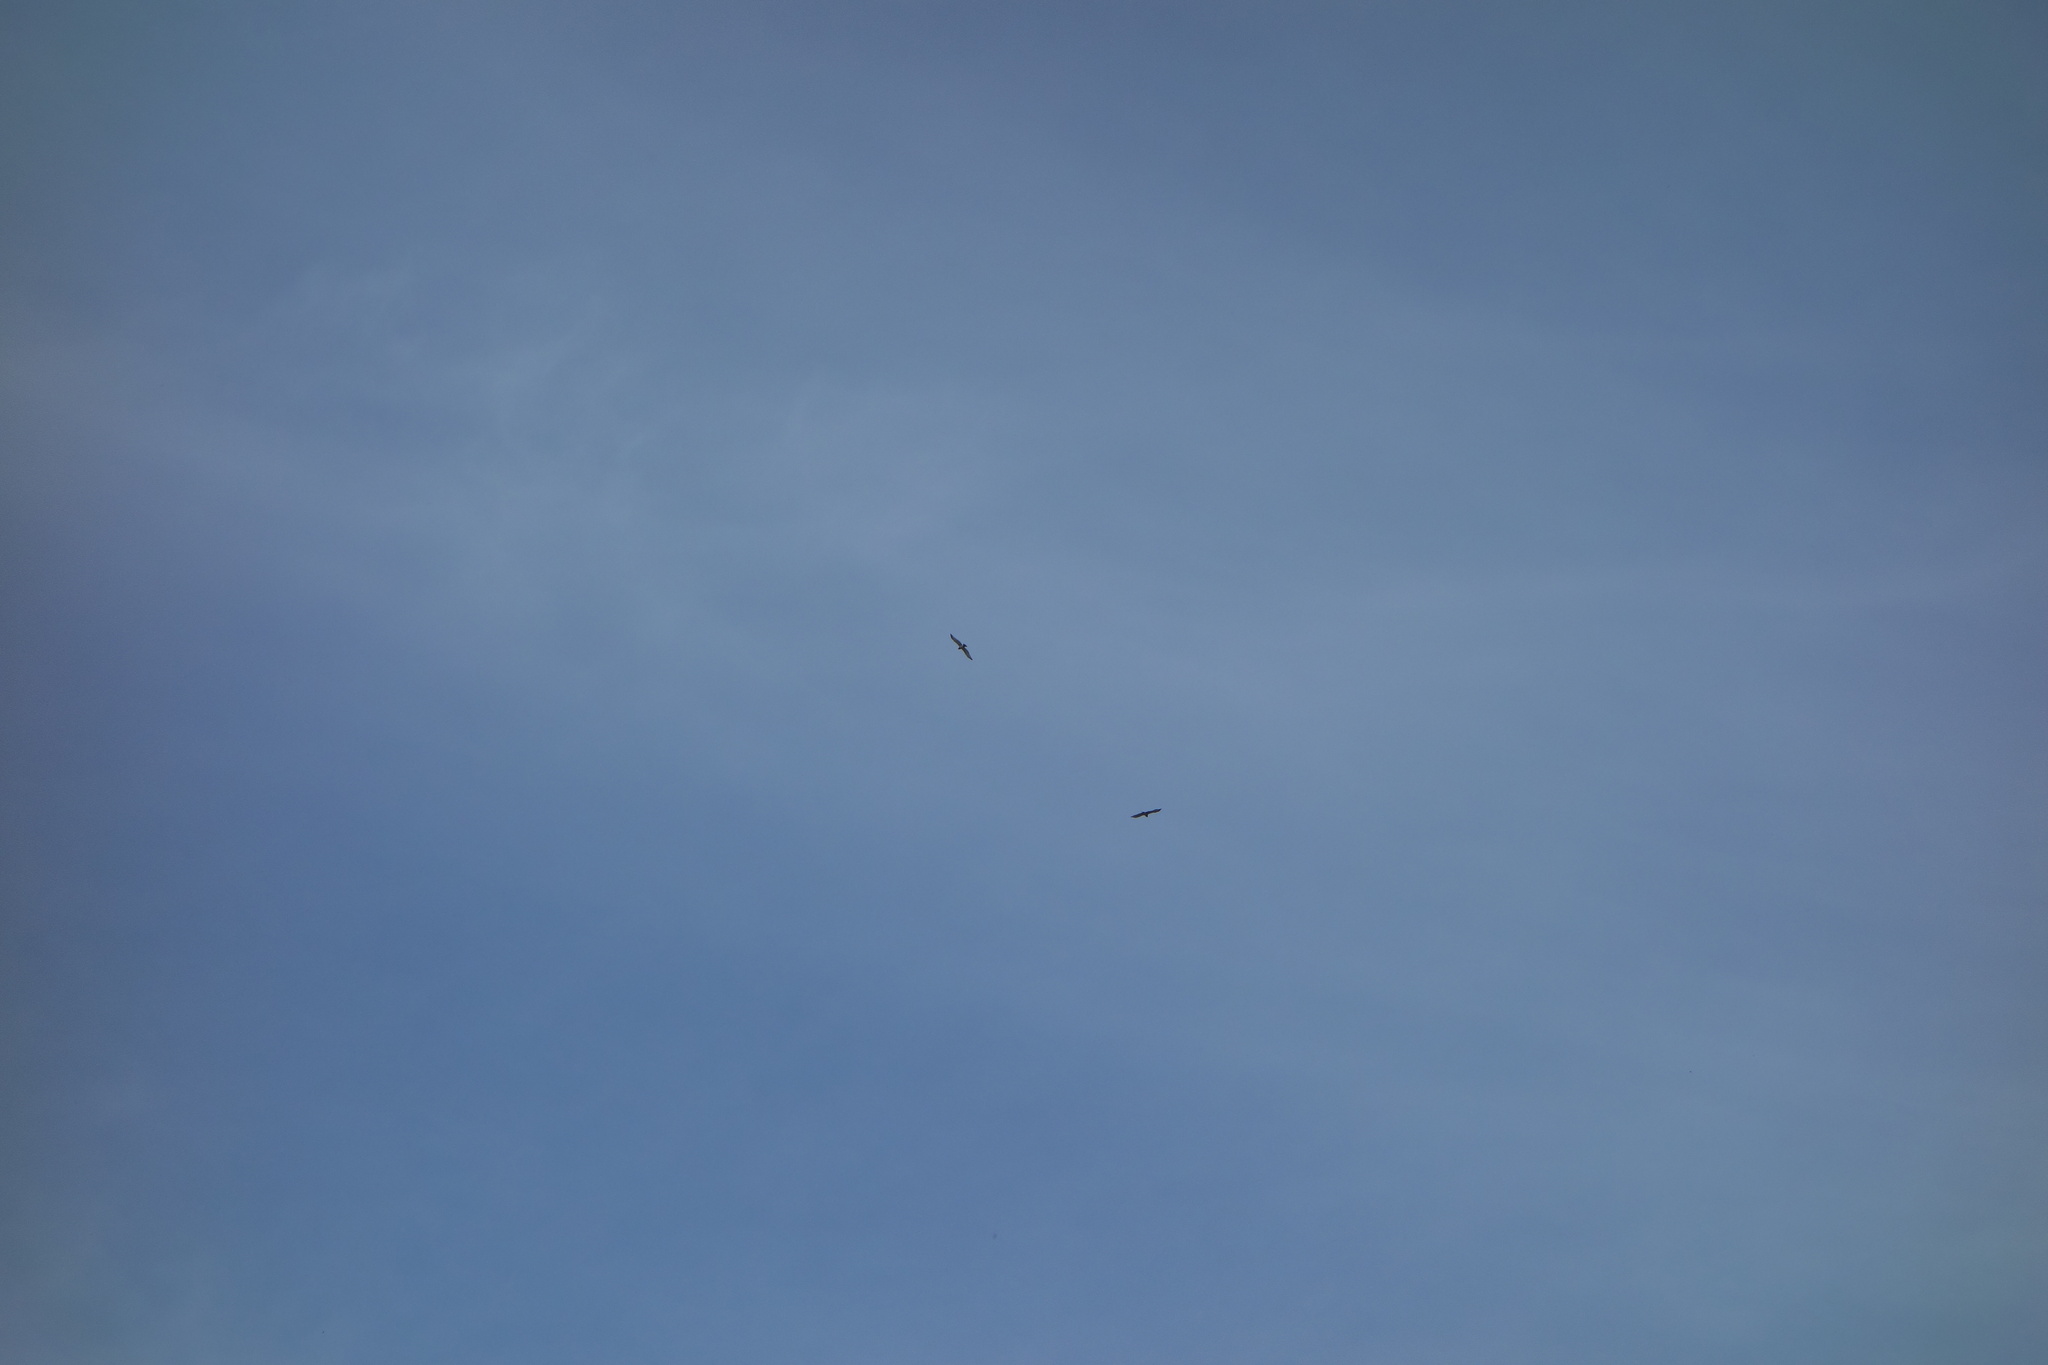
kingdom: Animalia
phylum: Chordata
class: Aves
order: Accipitriformes
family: Accipitridae
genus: Circaetus
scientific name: Circaetus gallicus
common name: Short-toed snake eagle
